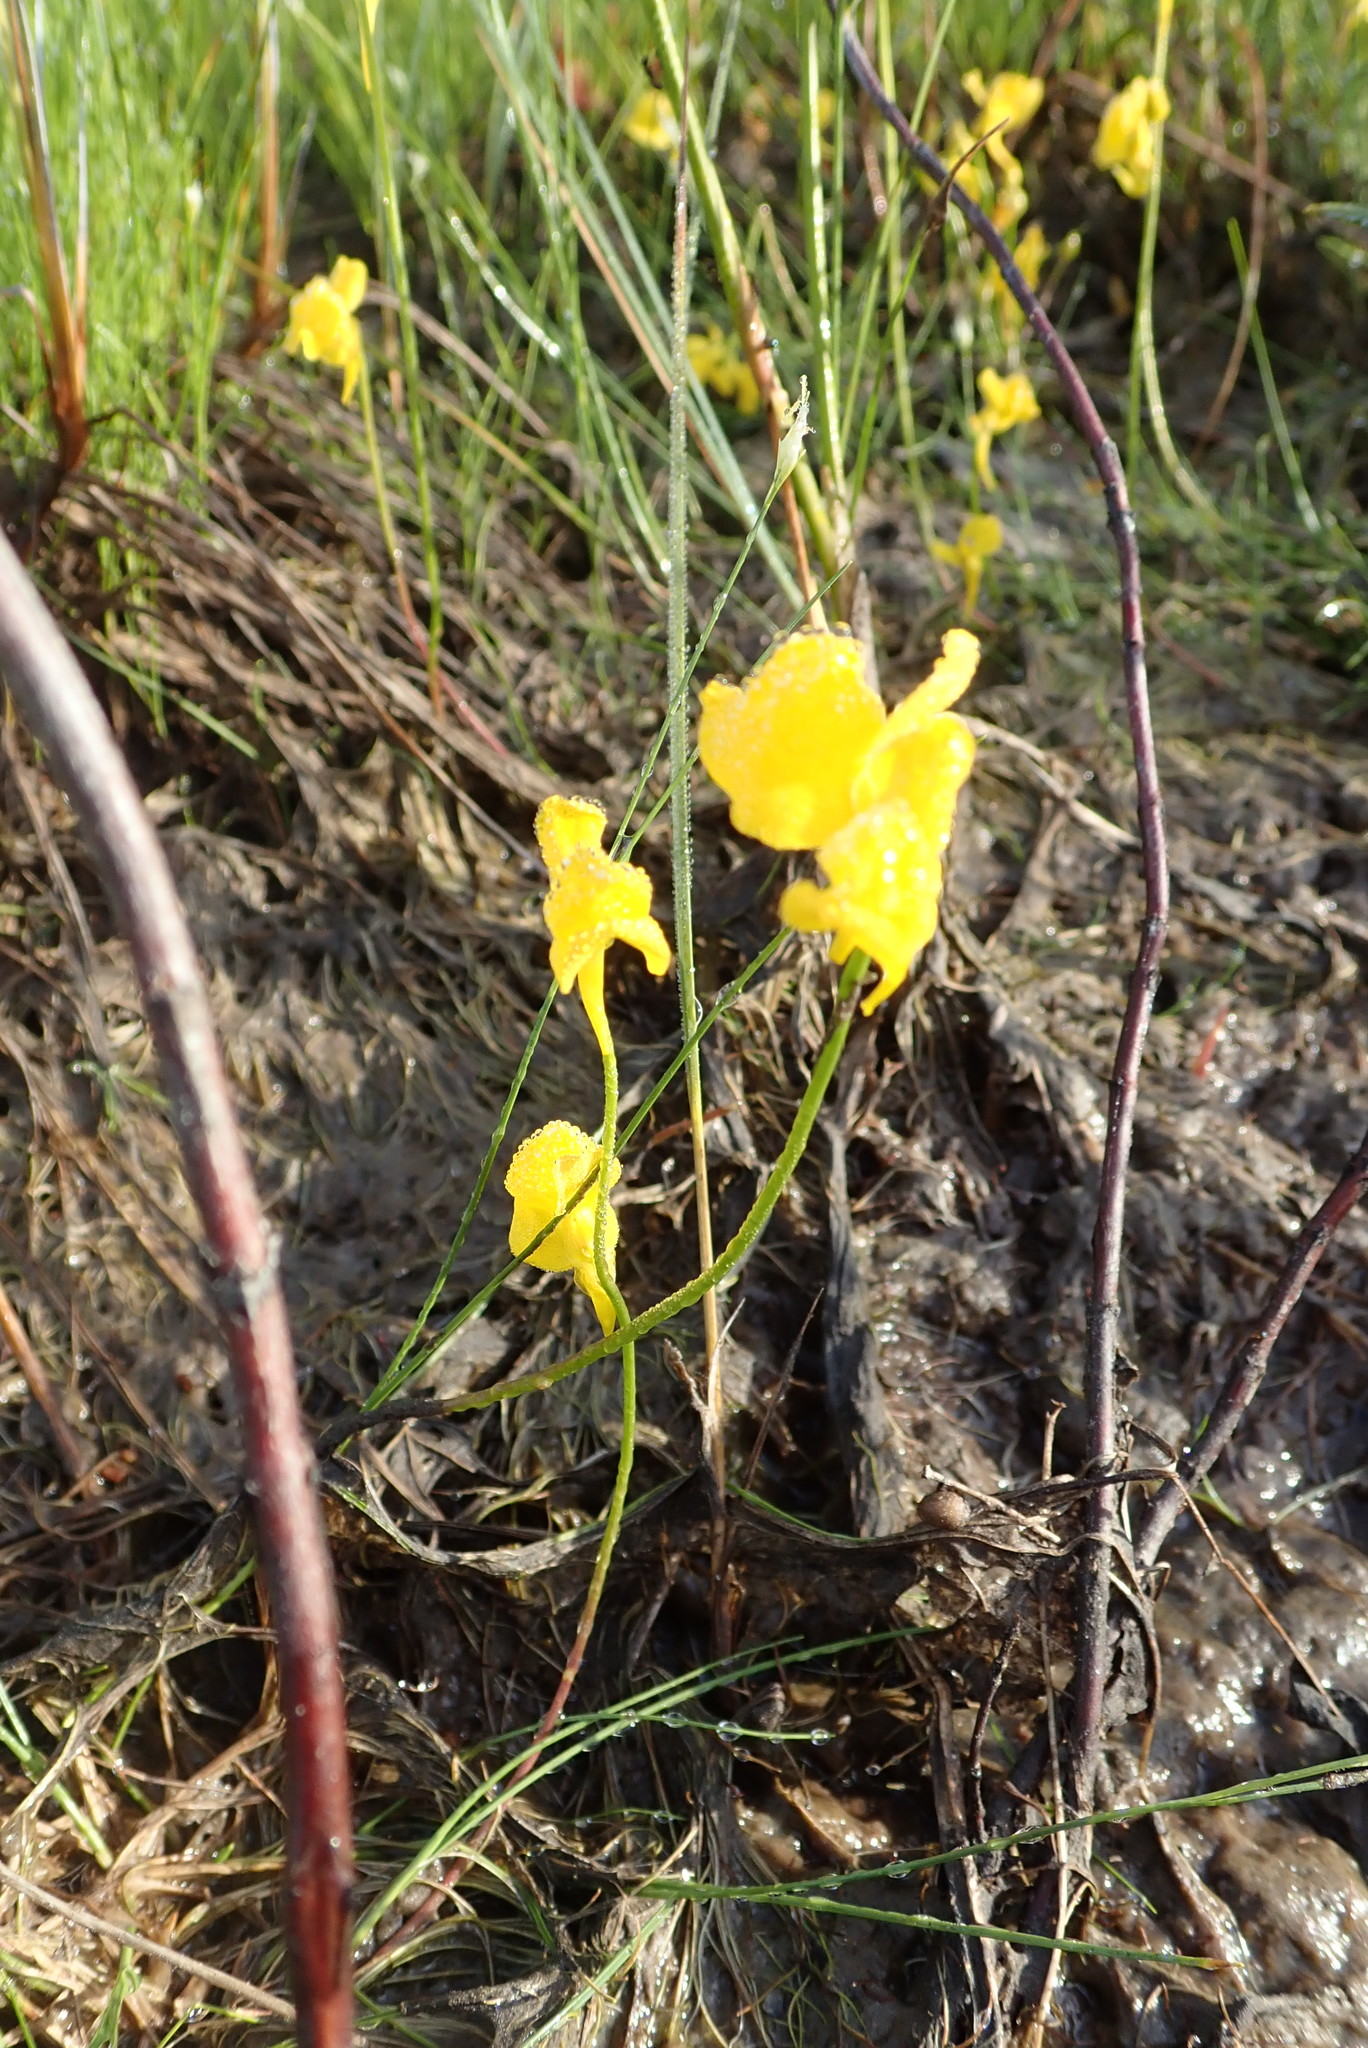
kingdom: Plantae
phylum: Tracheophyta
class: Magnoliopsida
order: Lamiales
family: Lentibulariaceae
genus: Utricularia
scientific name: Utricularia cornuta
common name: Horned bladderwort
